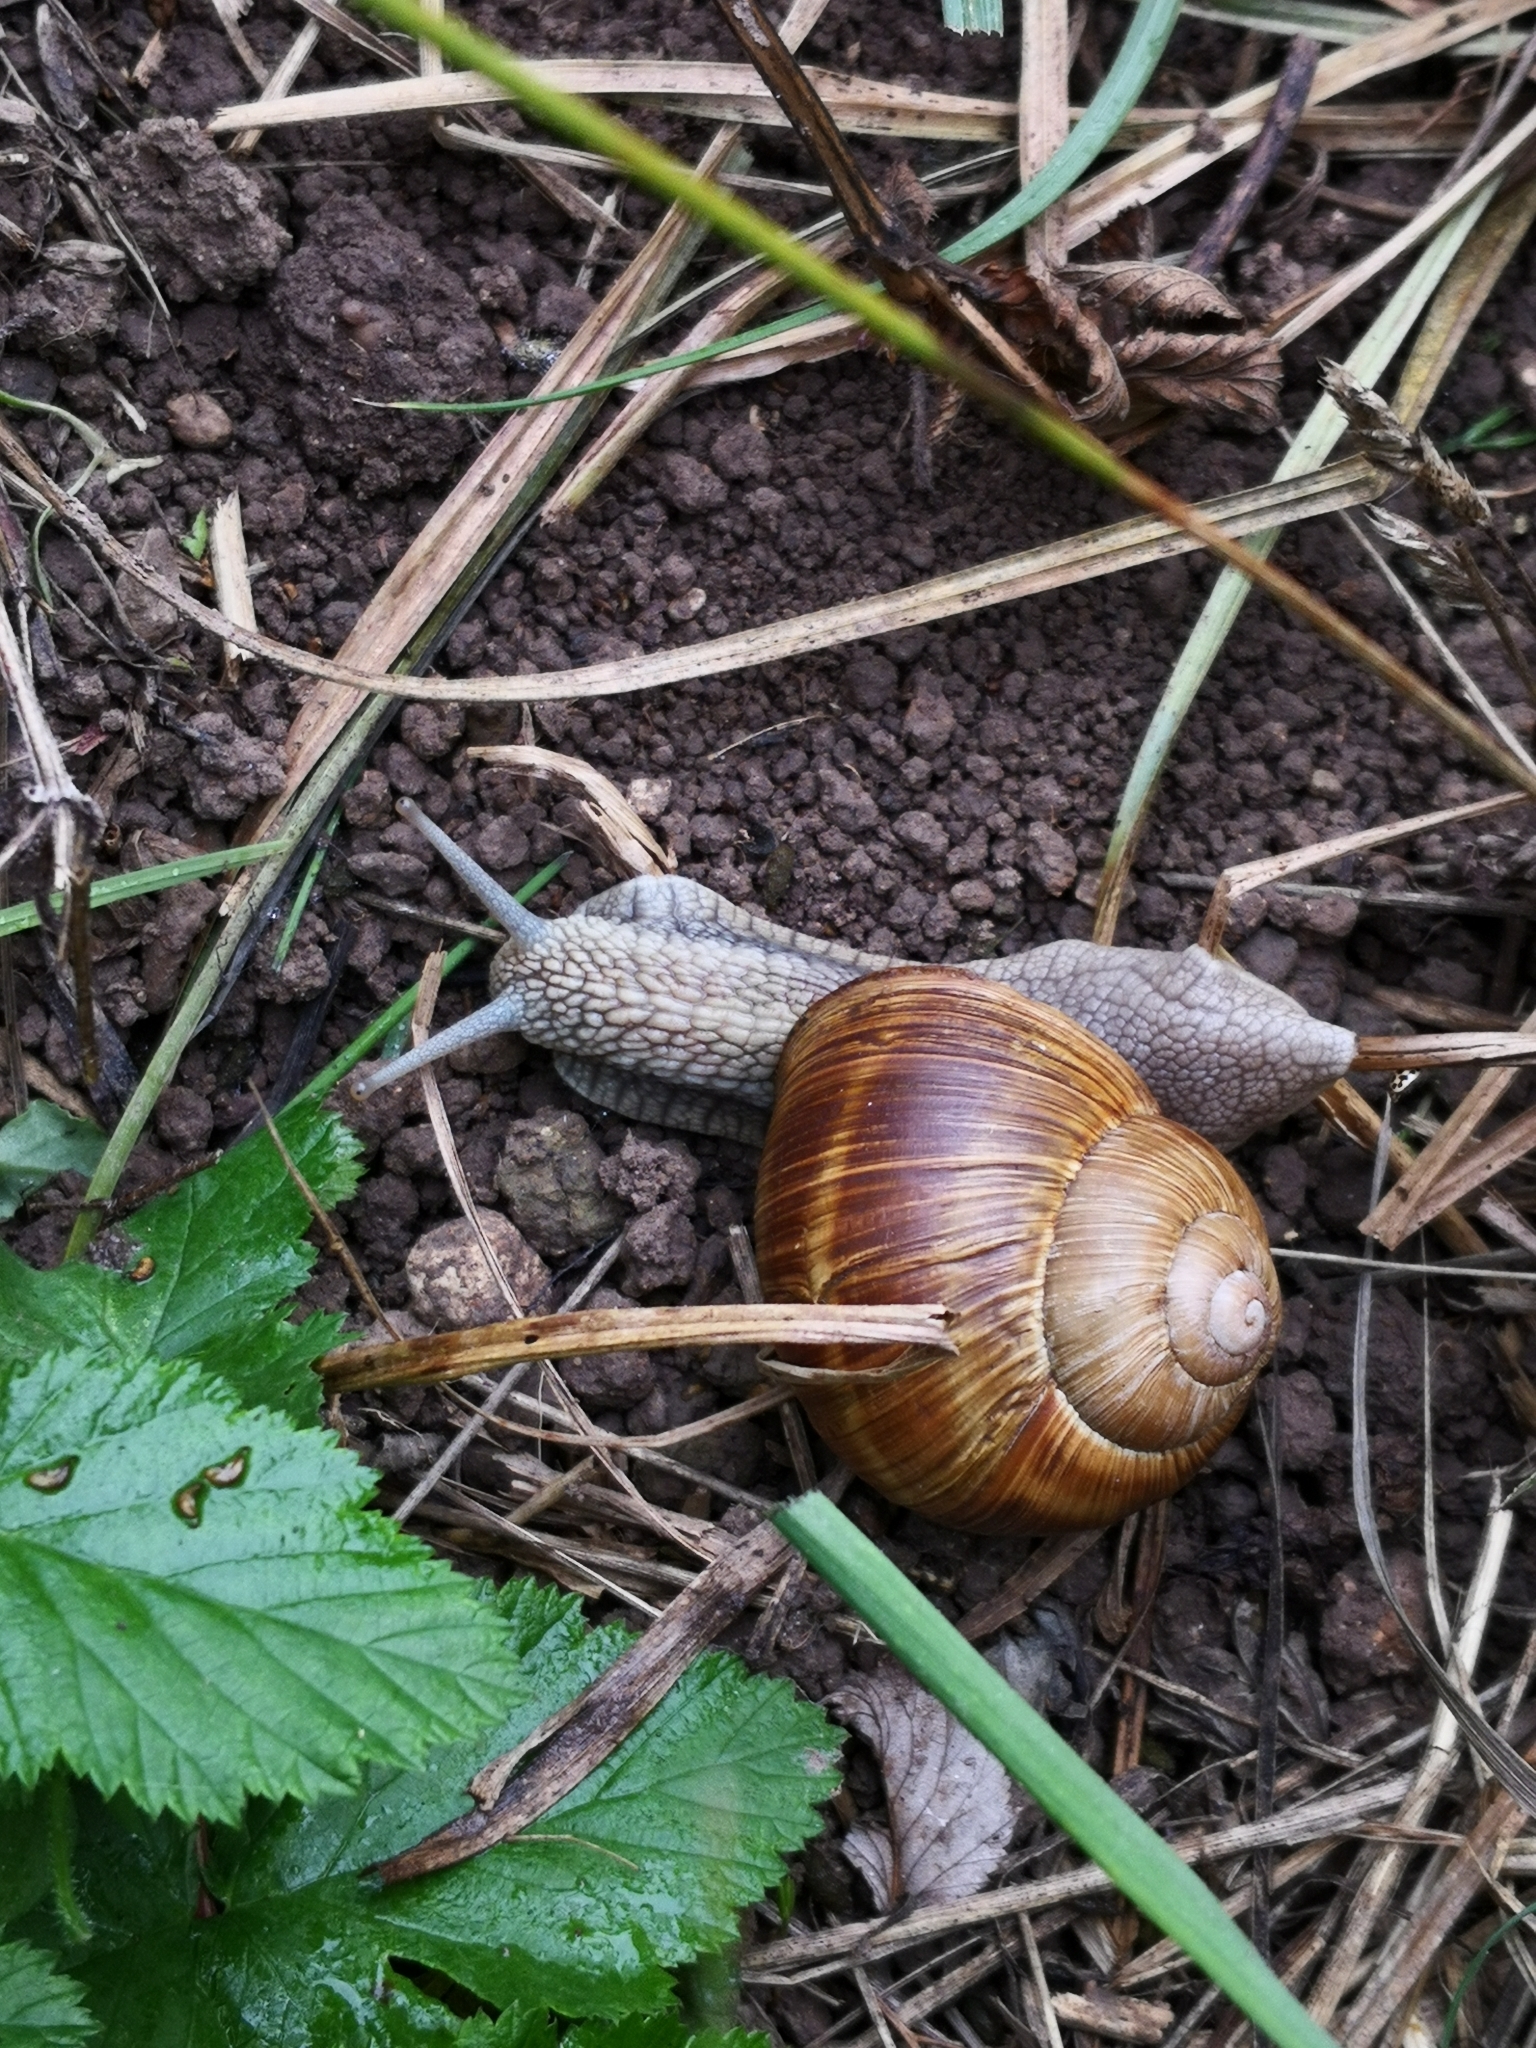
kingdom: Animalia
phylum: Mollusca
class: Gastropoda
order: Stylommatophora
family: Helicidae
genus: Helix
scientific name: Helix pomatia
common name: Roman snail
